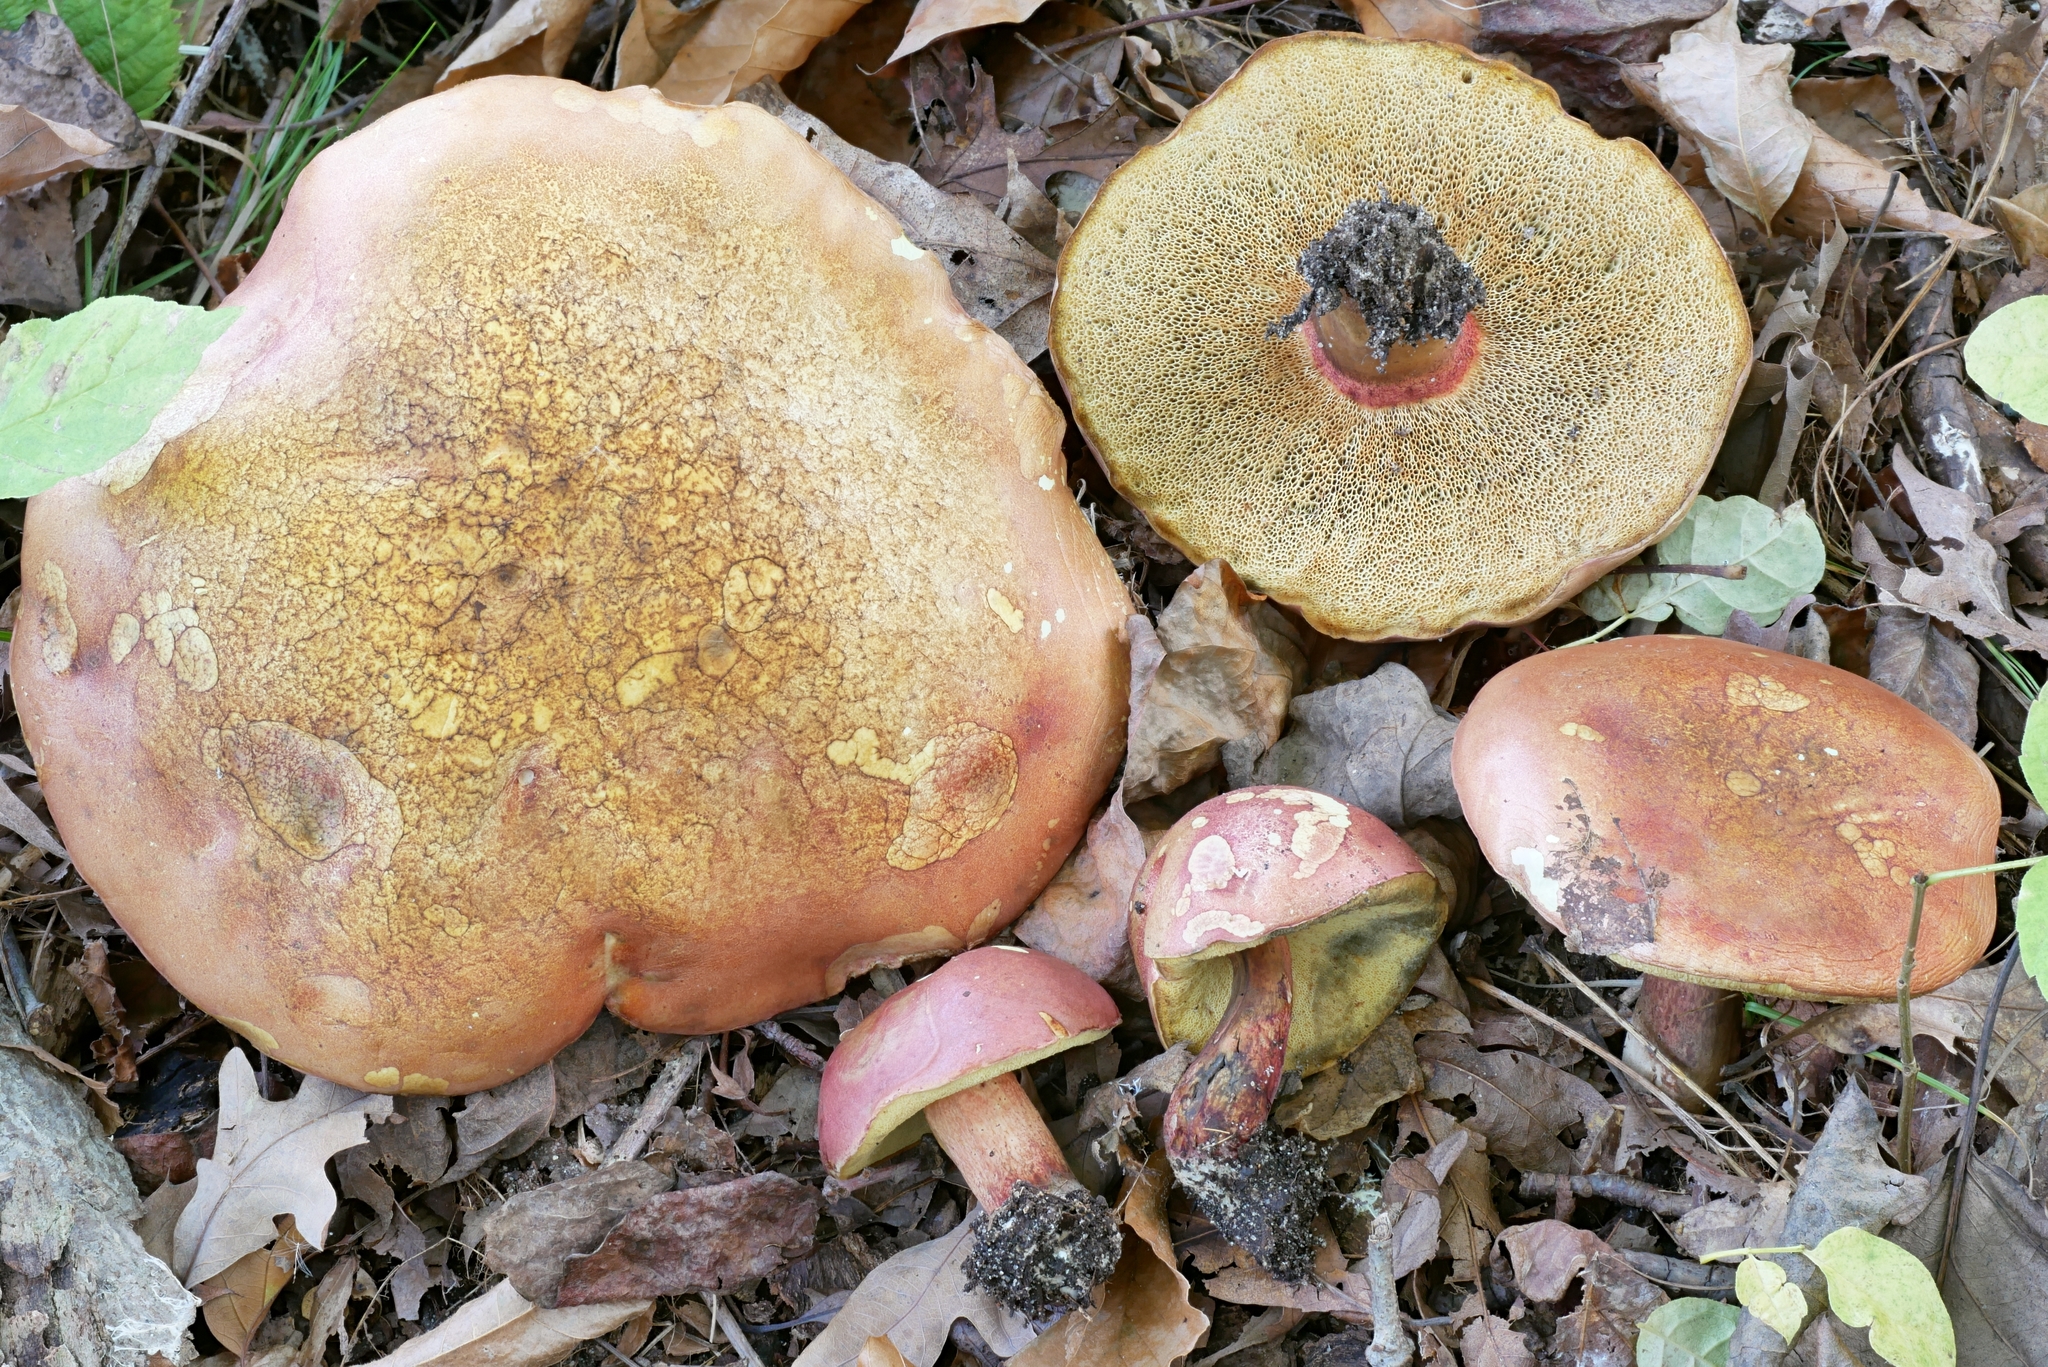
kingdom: Fungi
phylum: Basidiomycota
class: Agaricomycetes
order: Boletales
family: Boletaceae
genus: Baorangia
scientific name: Baorangia bicolor
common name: Two-colored bolete
